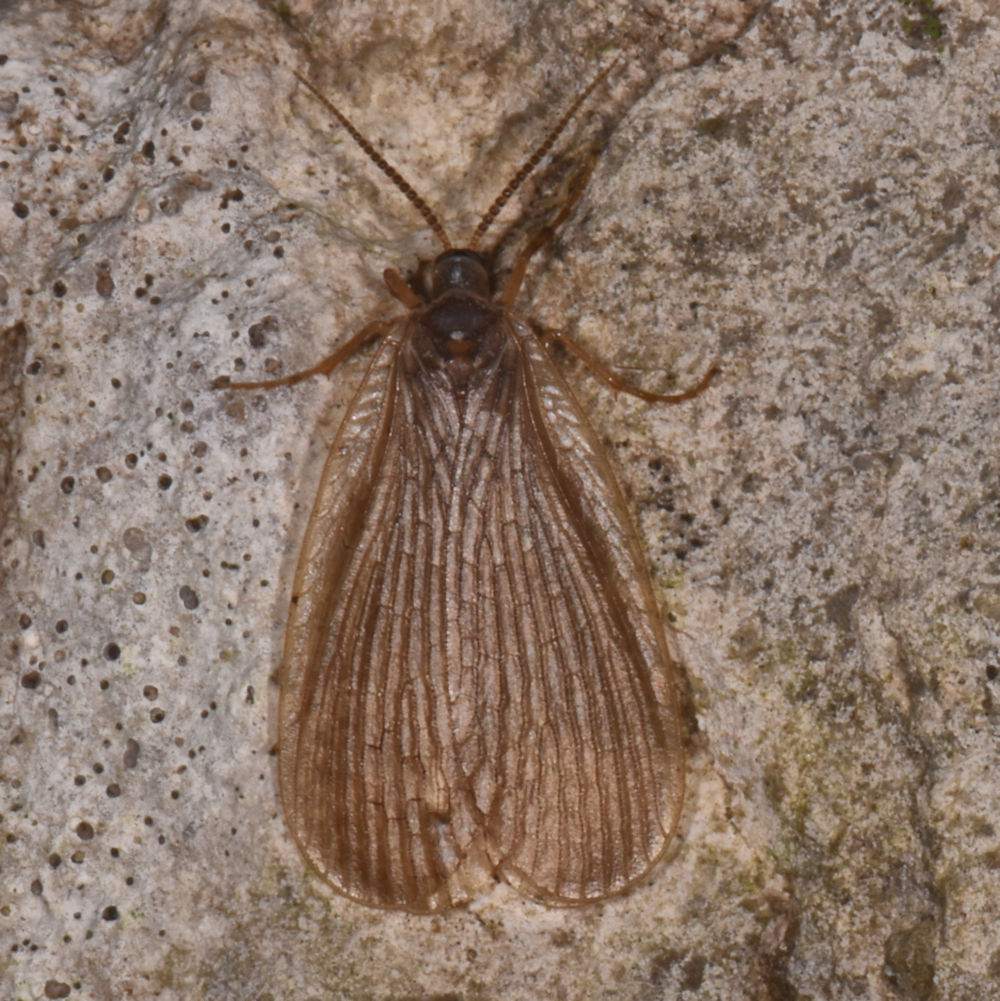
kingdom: Animalia
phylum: Arthropoda
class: Insecta
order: Mecoptera
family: Meropeidae
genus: Merope
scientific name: Merope tuber
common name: Forcepfly
